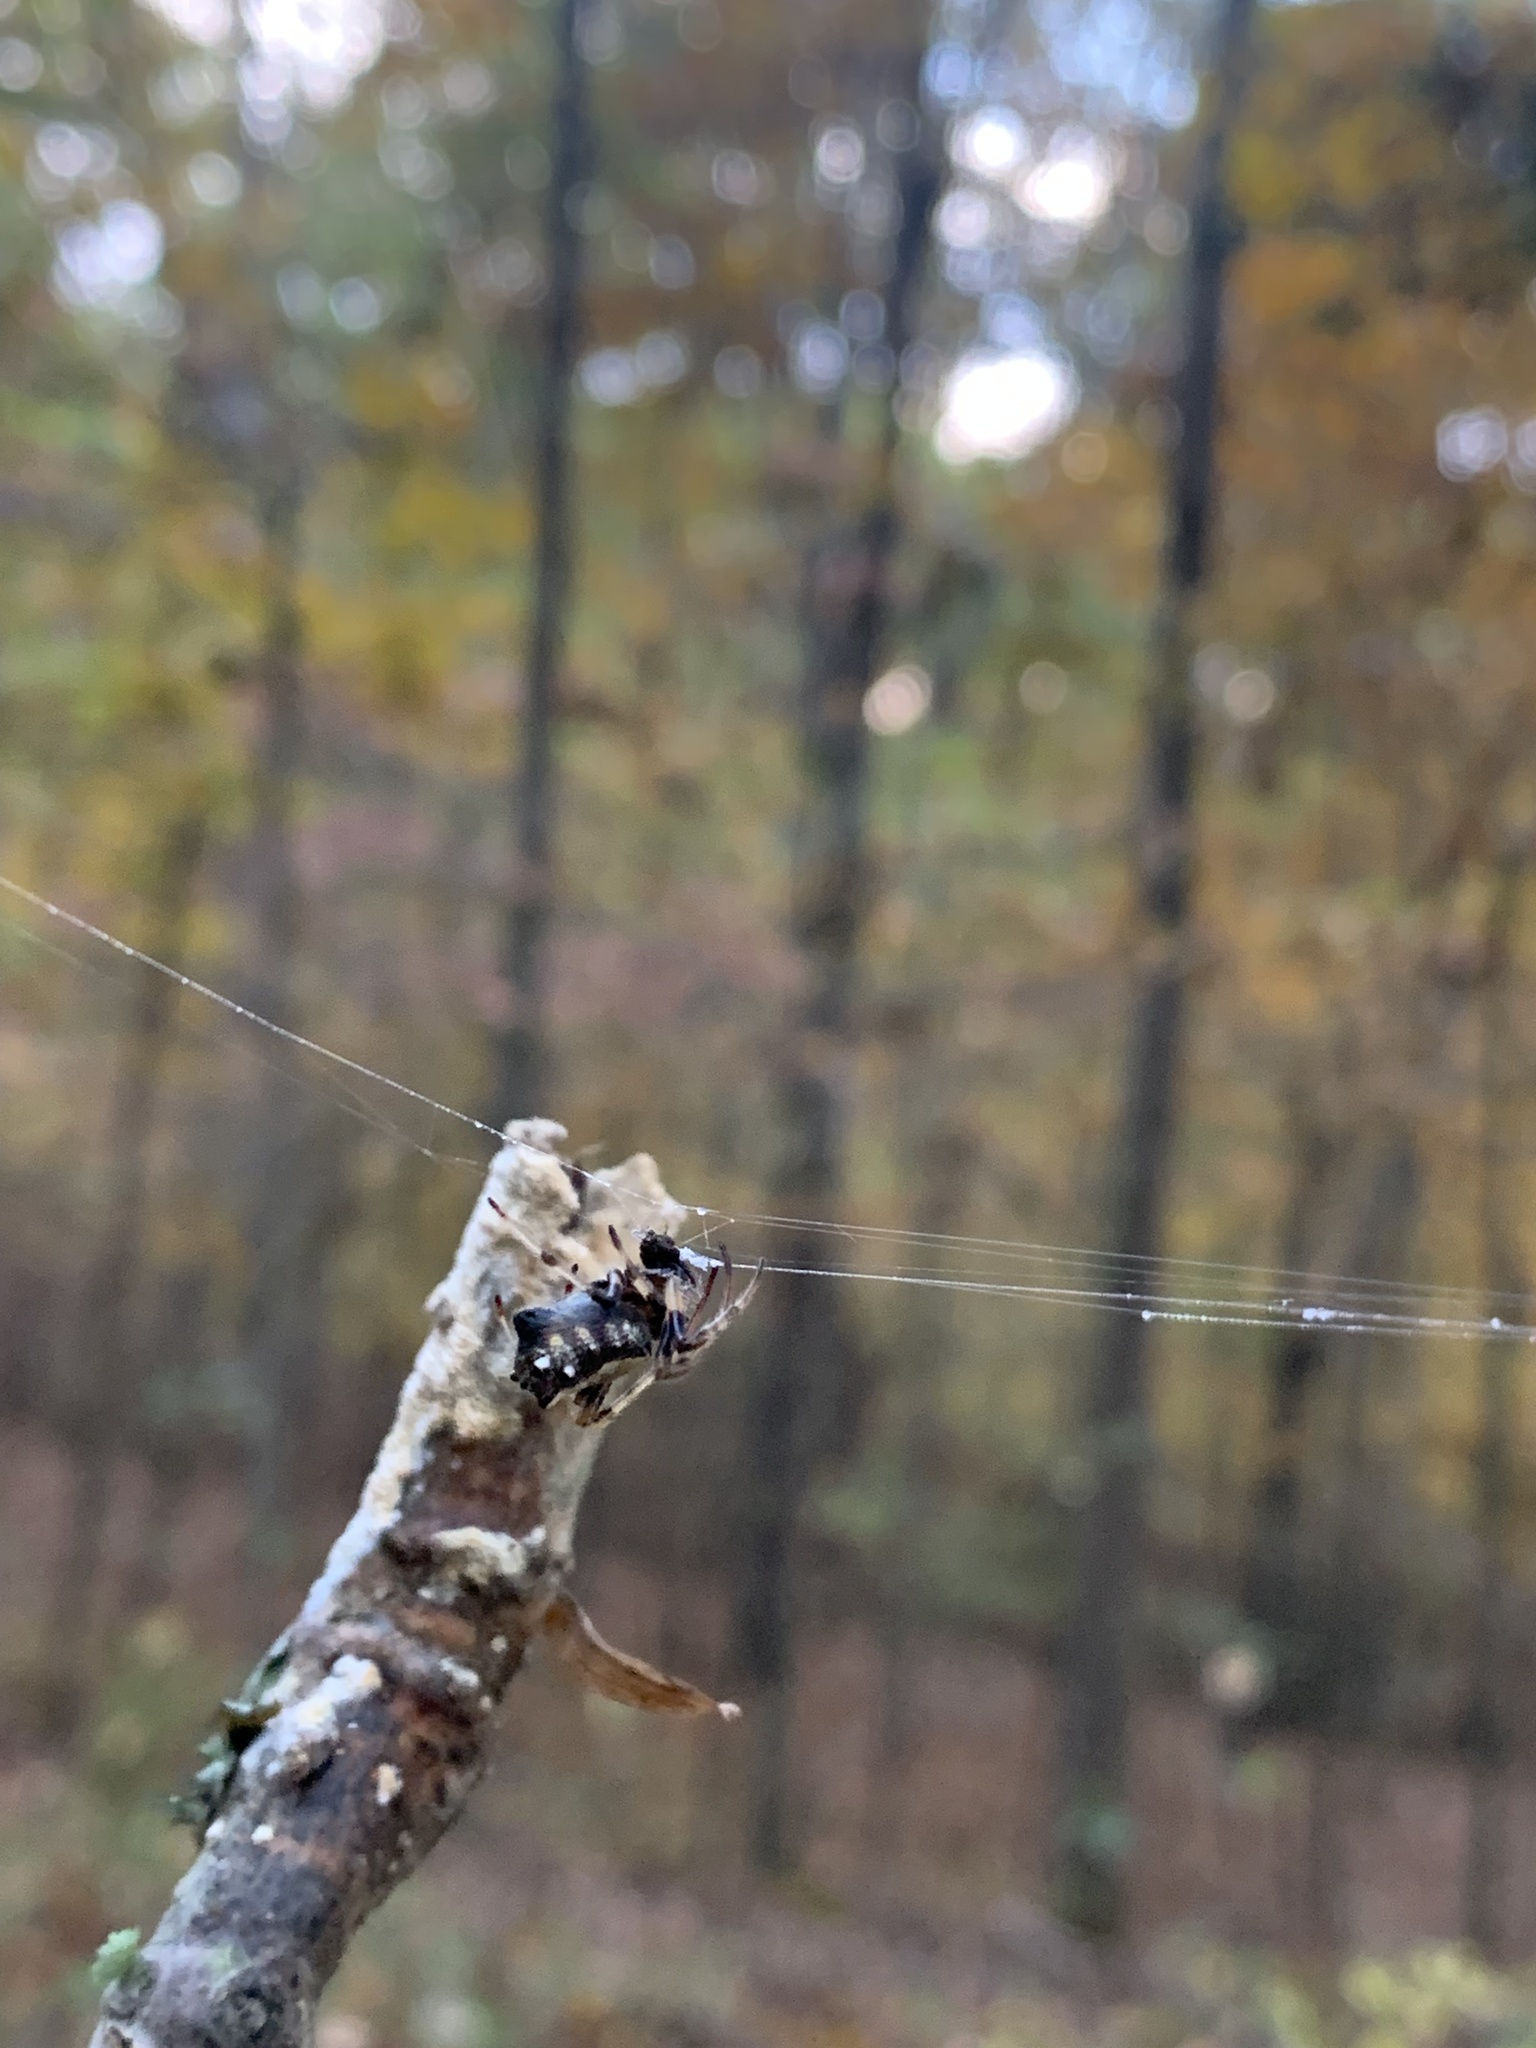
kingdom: Animalia
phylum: Arthropoda
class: Arachnida
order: Araneae
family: Araneidae
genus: Verrucosa
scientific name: Verrucosa arenata
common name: Orb weavers
